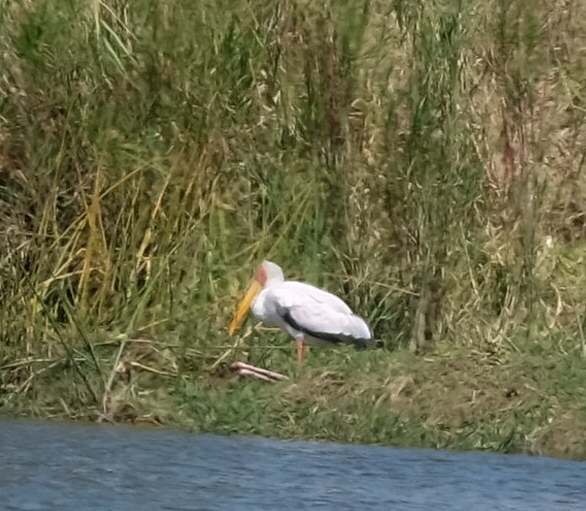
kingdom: Animalia
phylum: Chordata
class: Aves
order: Ciconiiformes
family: Ciconiidae
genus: Mycteria
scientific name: Mycteria ibis
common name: Yellow-billed stork
